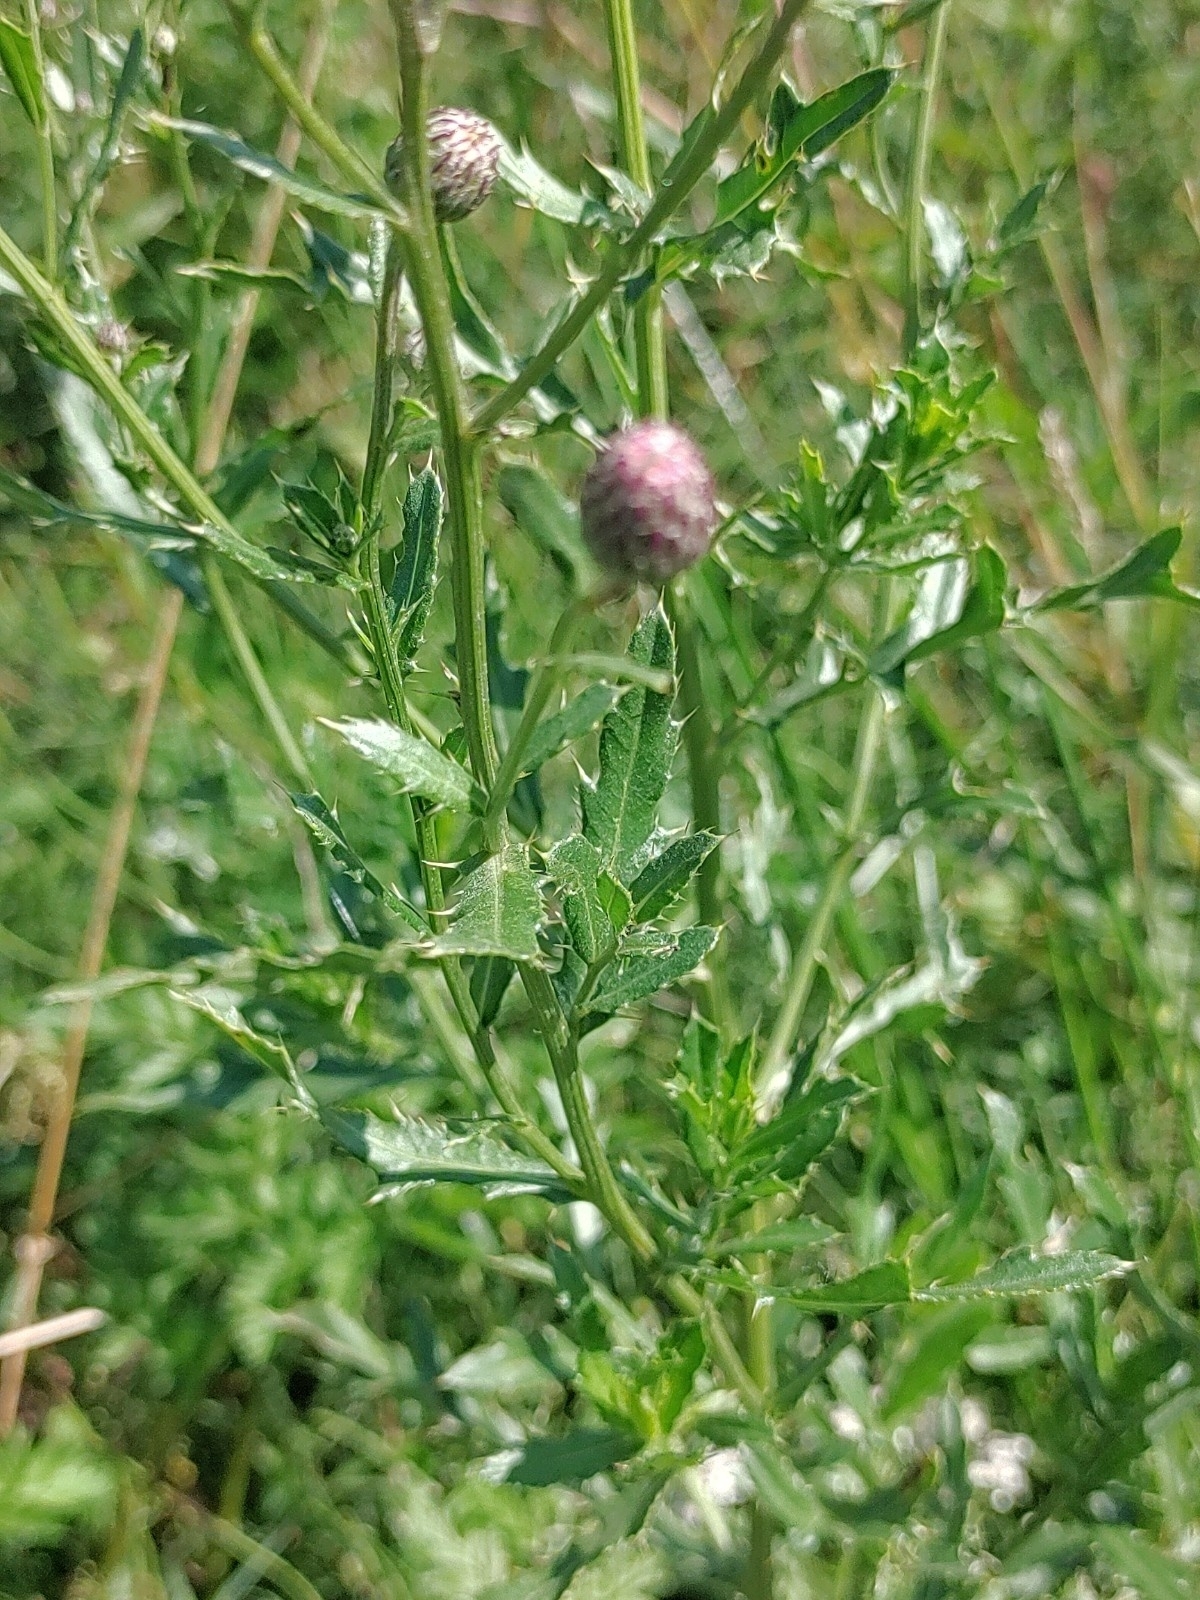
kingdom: Plantae
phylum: Tracheophyta
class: Magnoliopsida
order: Asterales
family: Asteraceae
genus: Cirsium
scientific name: Cirsium arvense
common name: Creeping thistle
